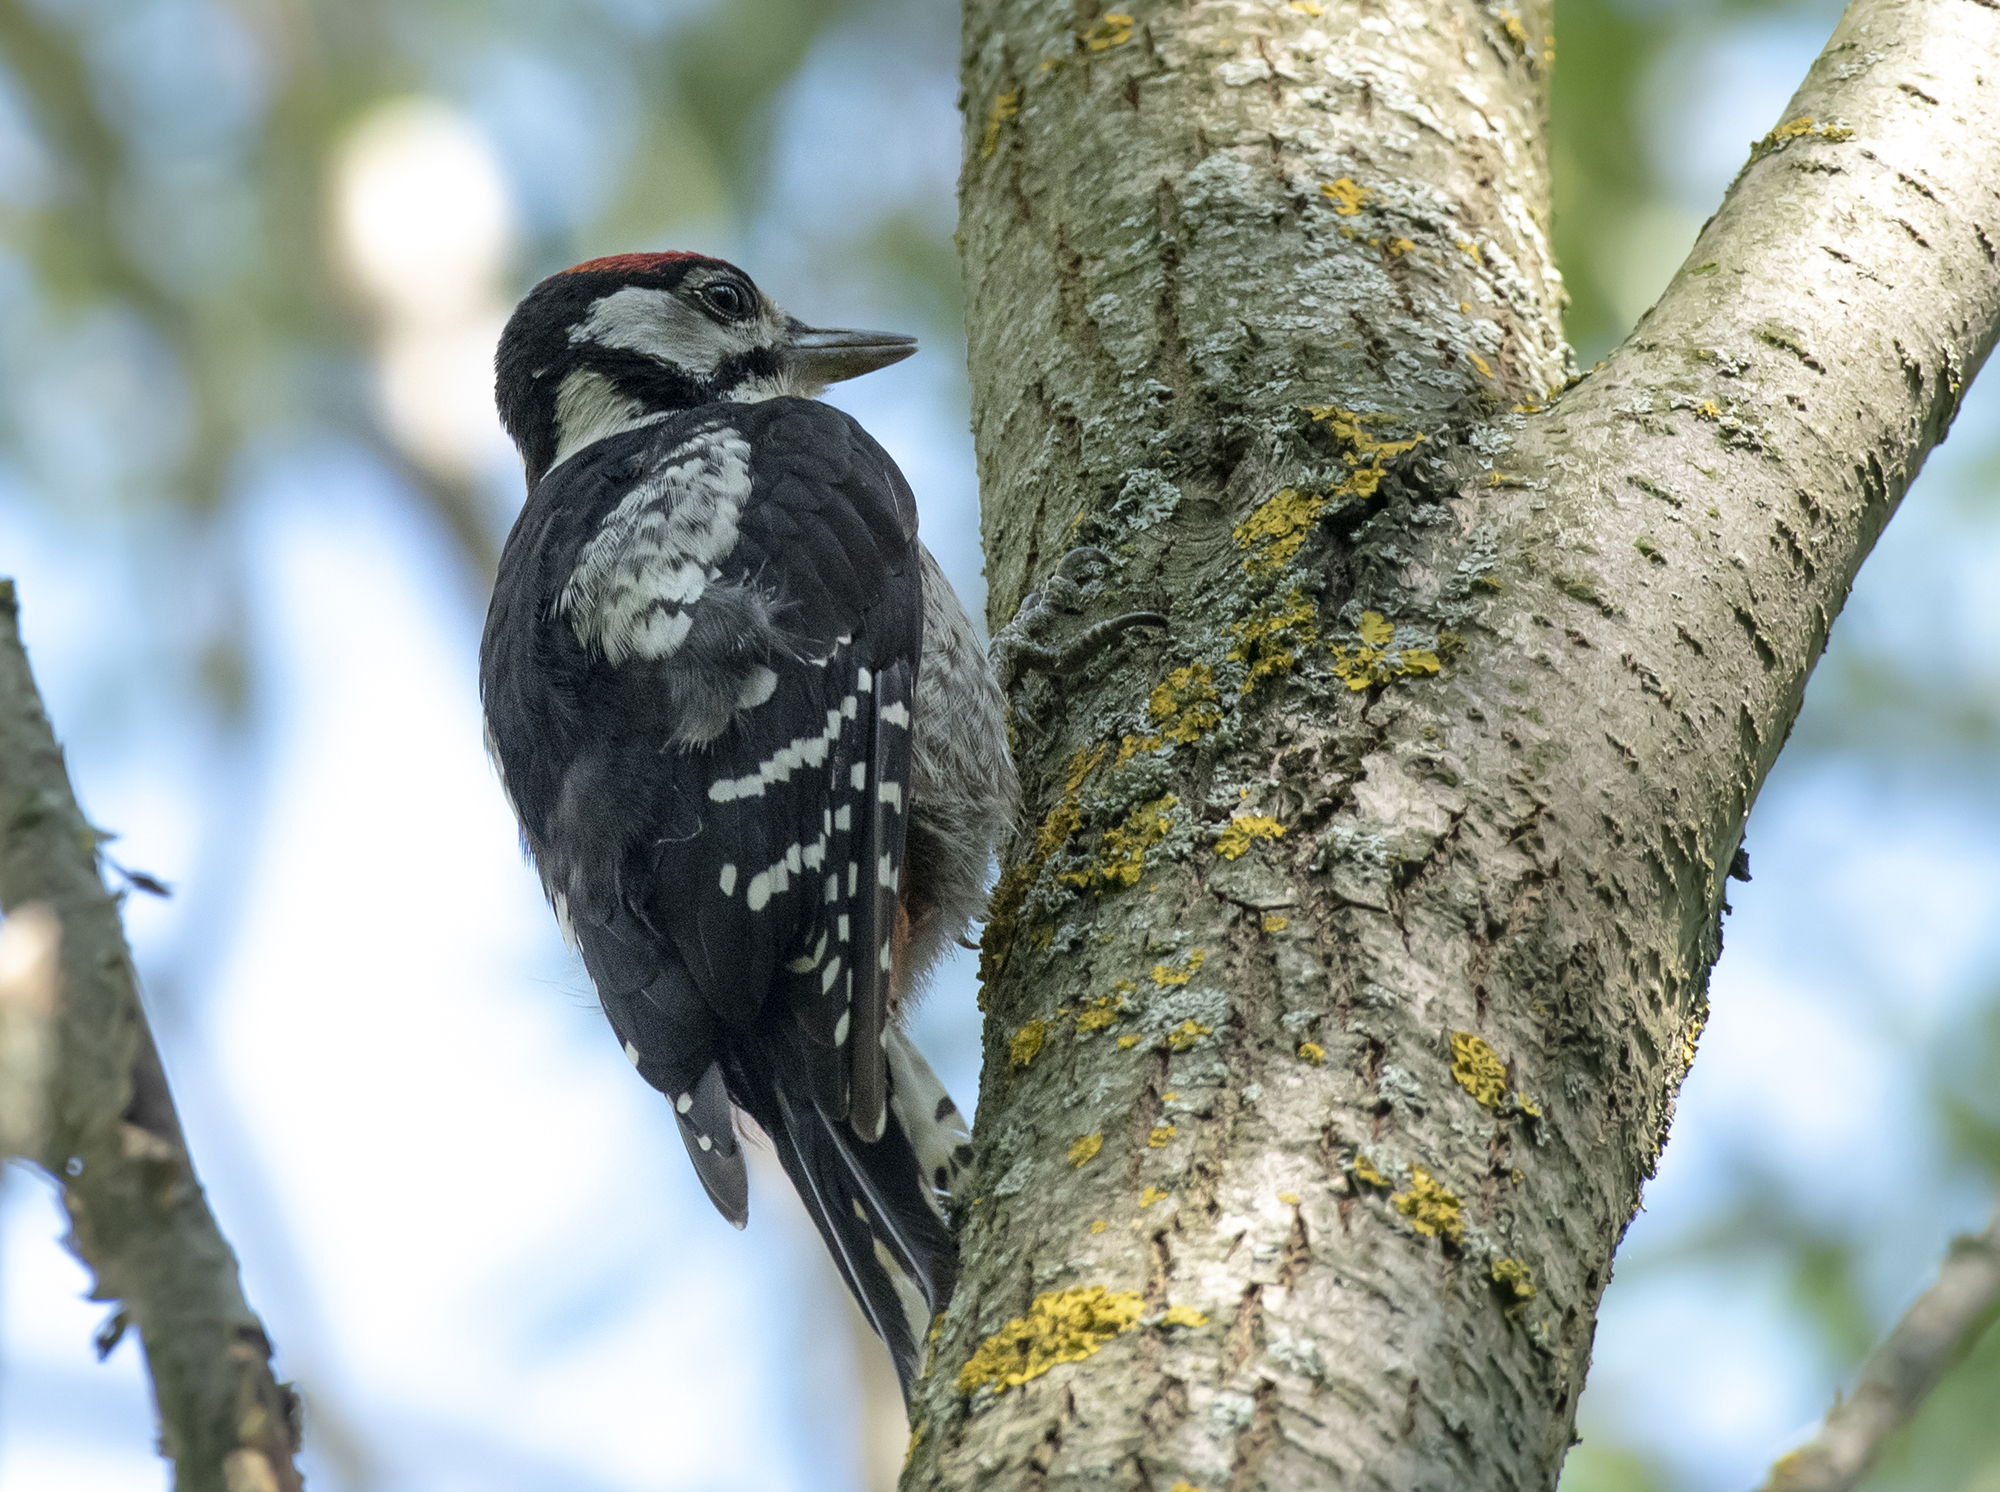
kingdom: Animalia
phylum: Chordata
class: Aves
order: Piciformes
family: Picidae
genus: Dendrocopos
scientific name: Dendrocopos major
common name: Great spotted woodpecker
